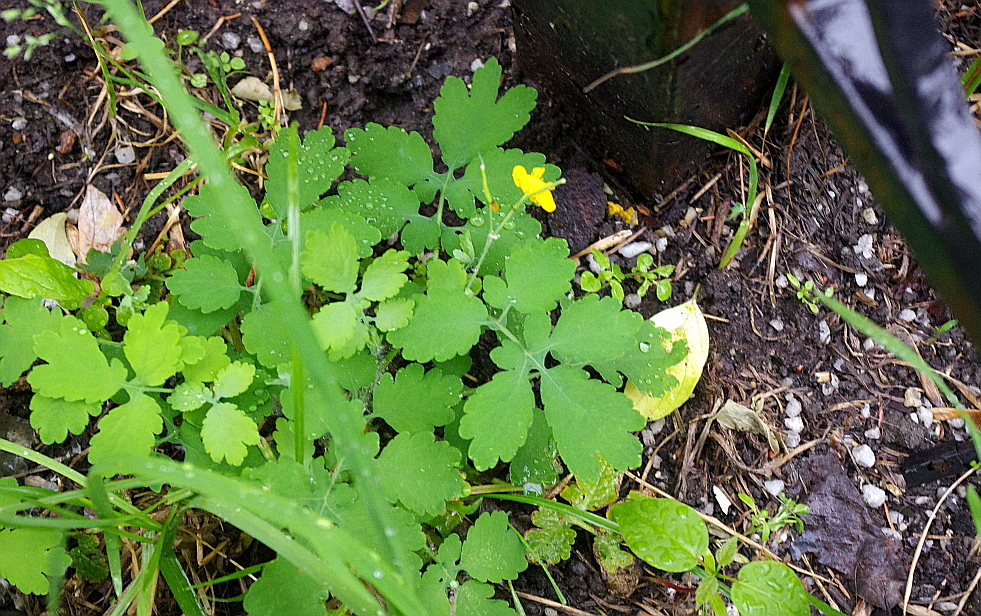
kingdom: Plantae
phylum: Tracheophyta
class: Magnoliopsida
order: Ranunculales
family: Papaveraceae
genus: Chelidonium
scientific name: Chelidonium majus
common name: Greater celandine
